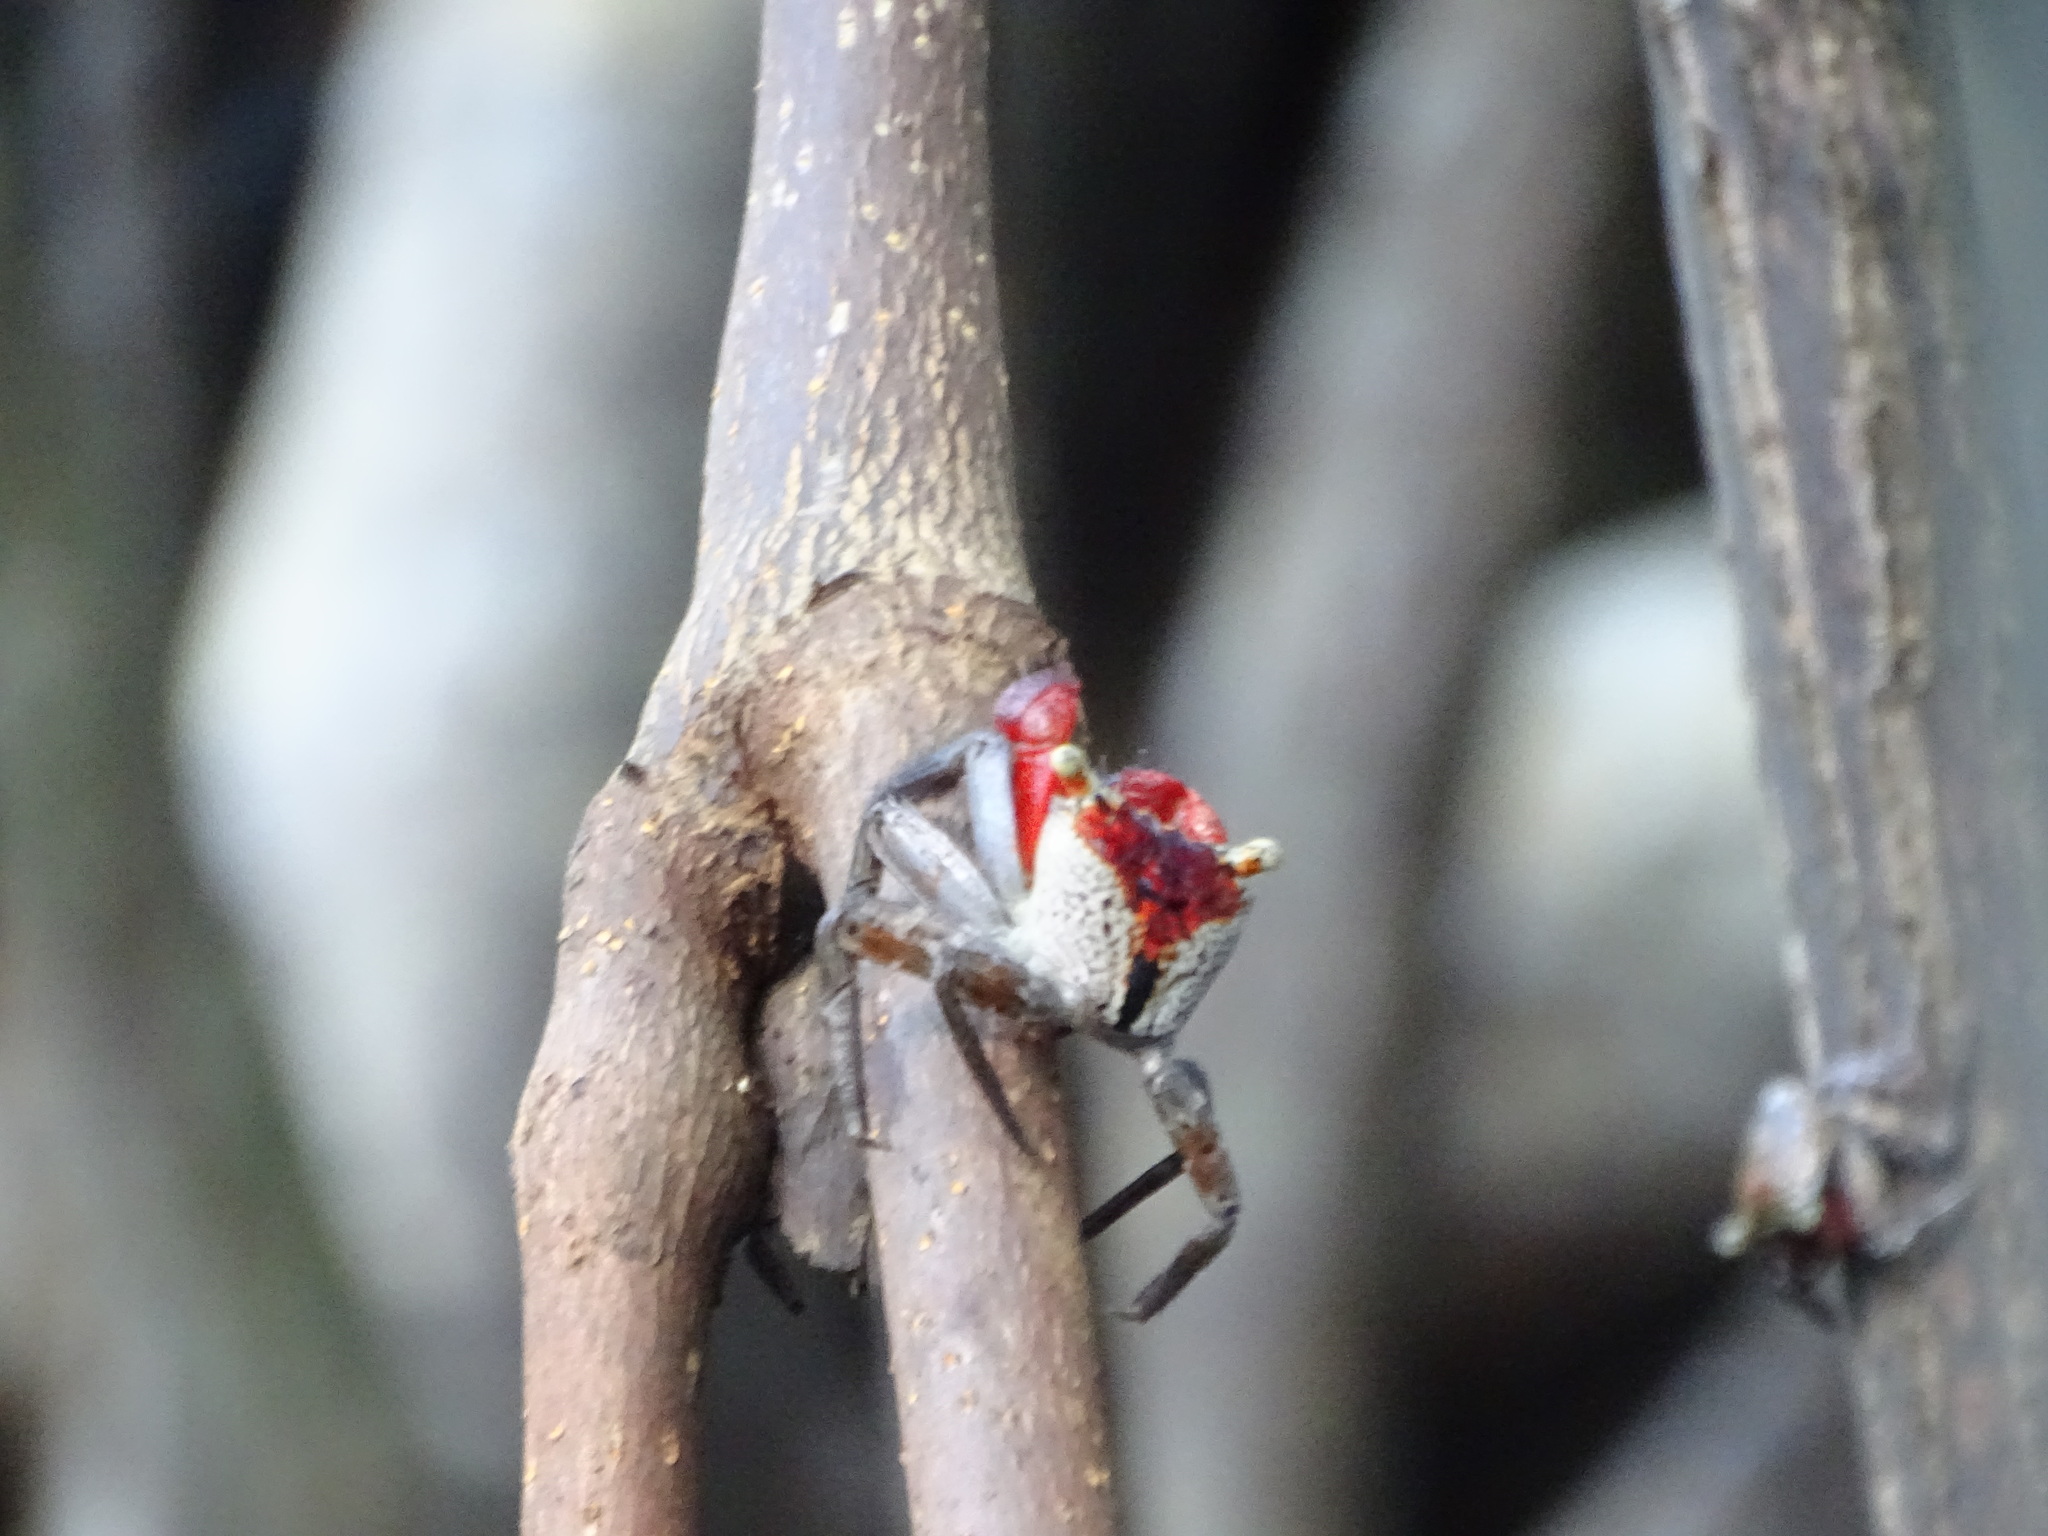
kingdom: Animalia
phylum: Arthropoda
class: Malacostraca
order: Decapoda
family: Sesarmidae
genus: Aratus
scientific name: Aratus pacificus
